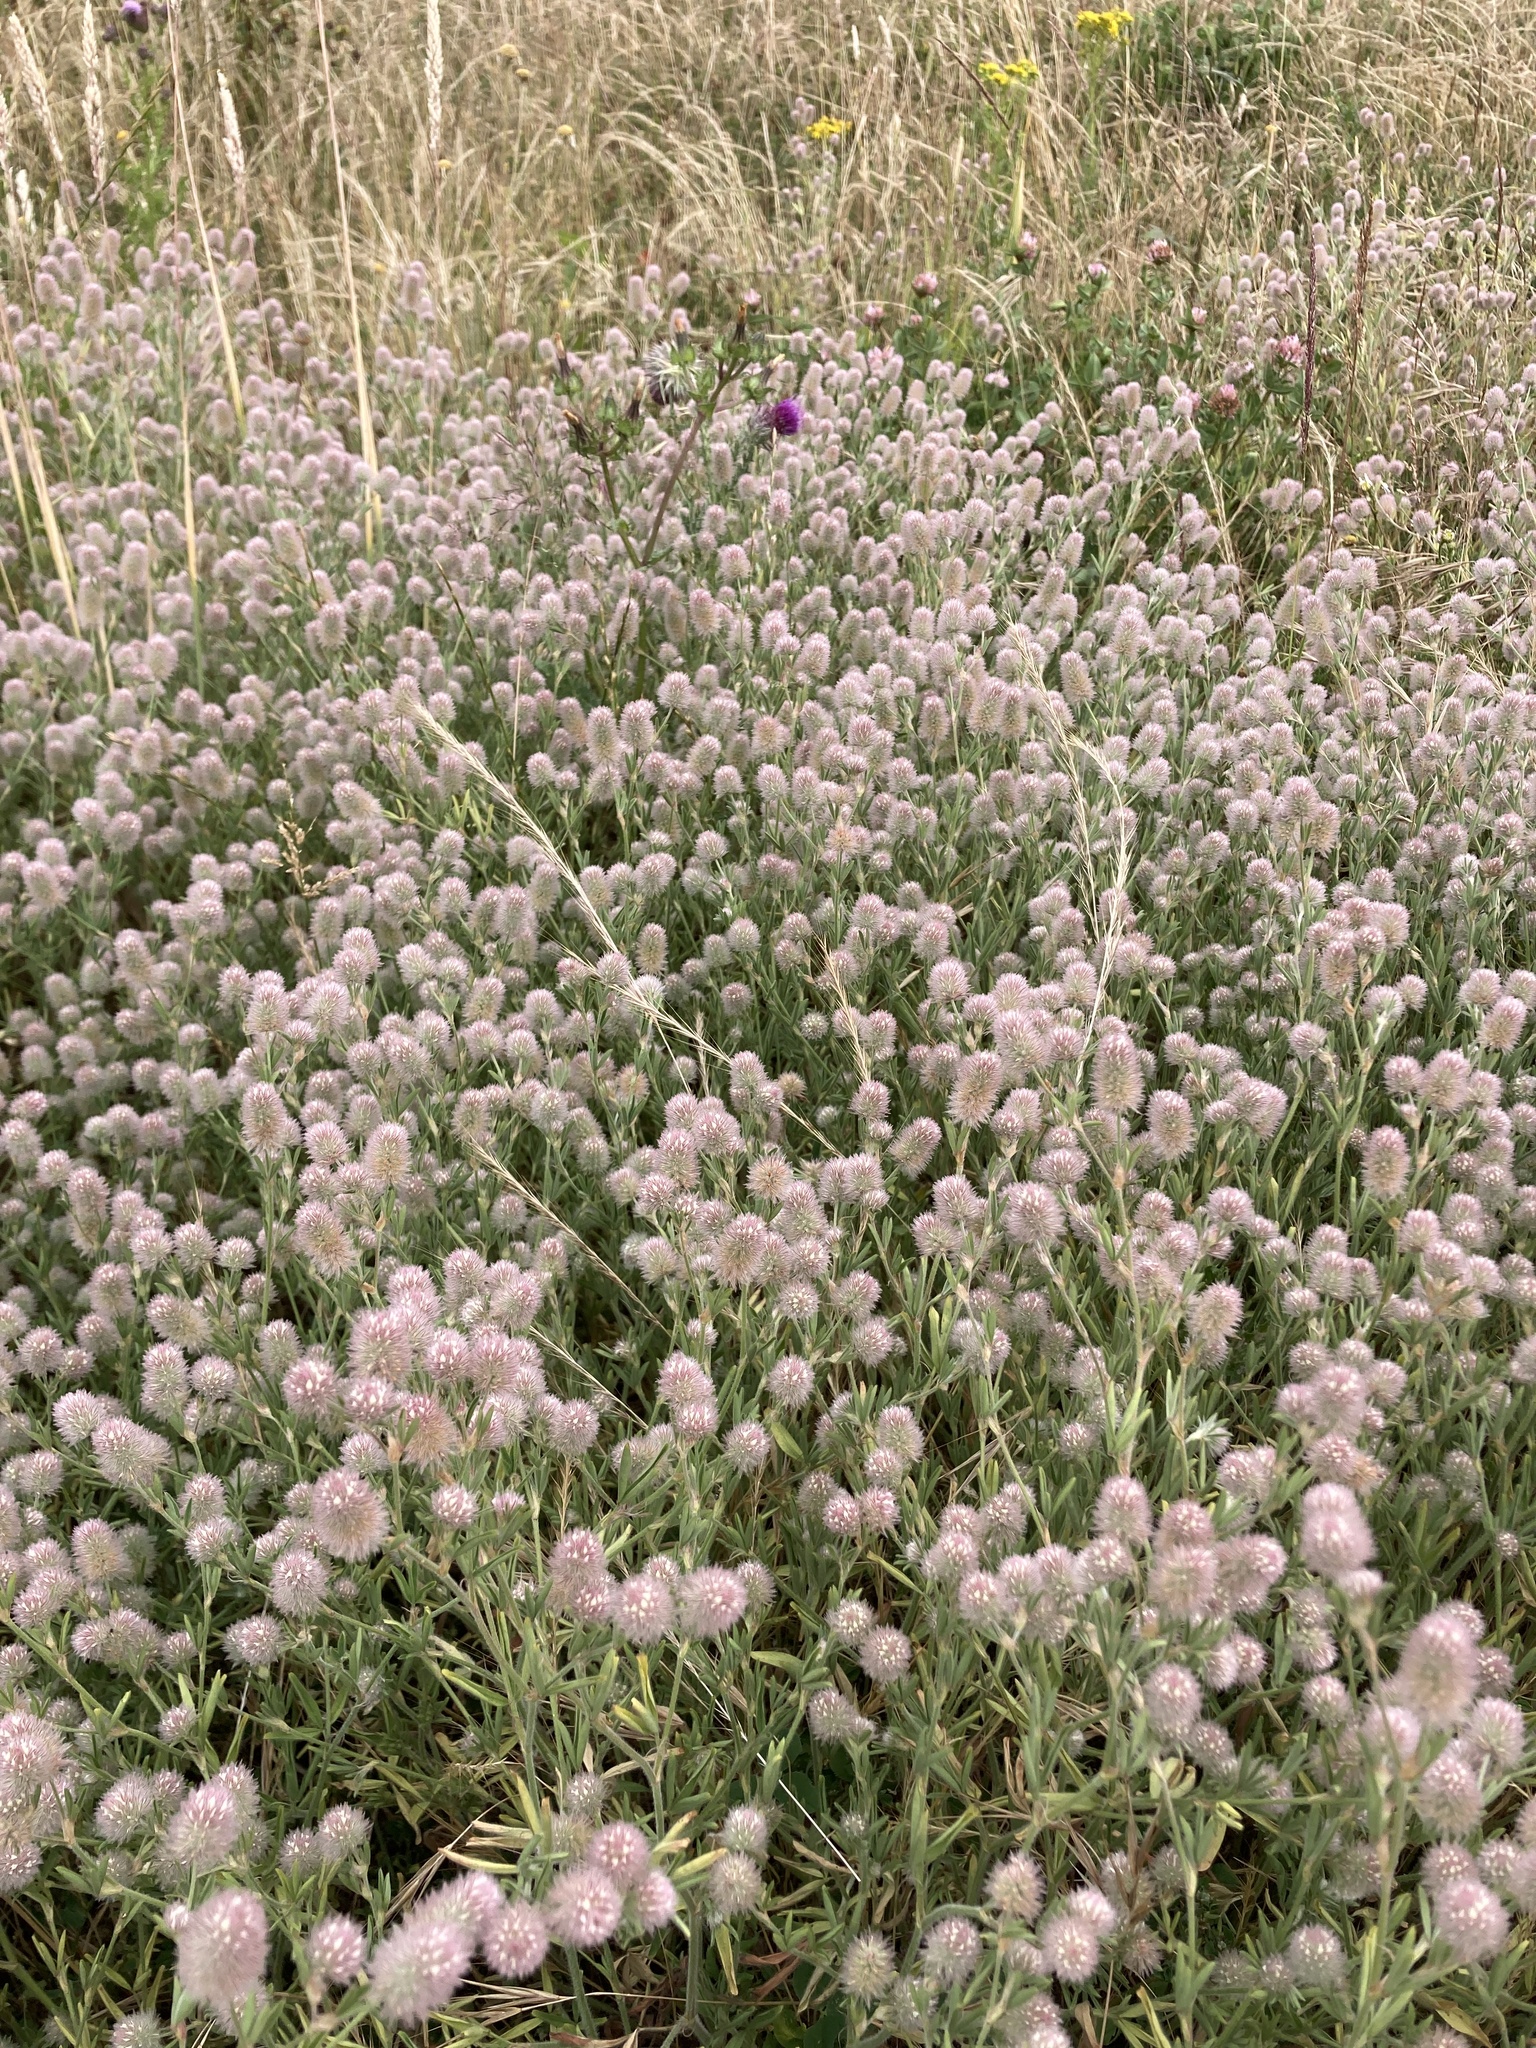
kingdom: Plantae
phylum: Tracheophyta
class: Magnoliopsida
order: Fabales
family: Fabaceae
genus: Trifolium
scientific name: Trifolium arvense
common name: Hare's-foot clover
